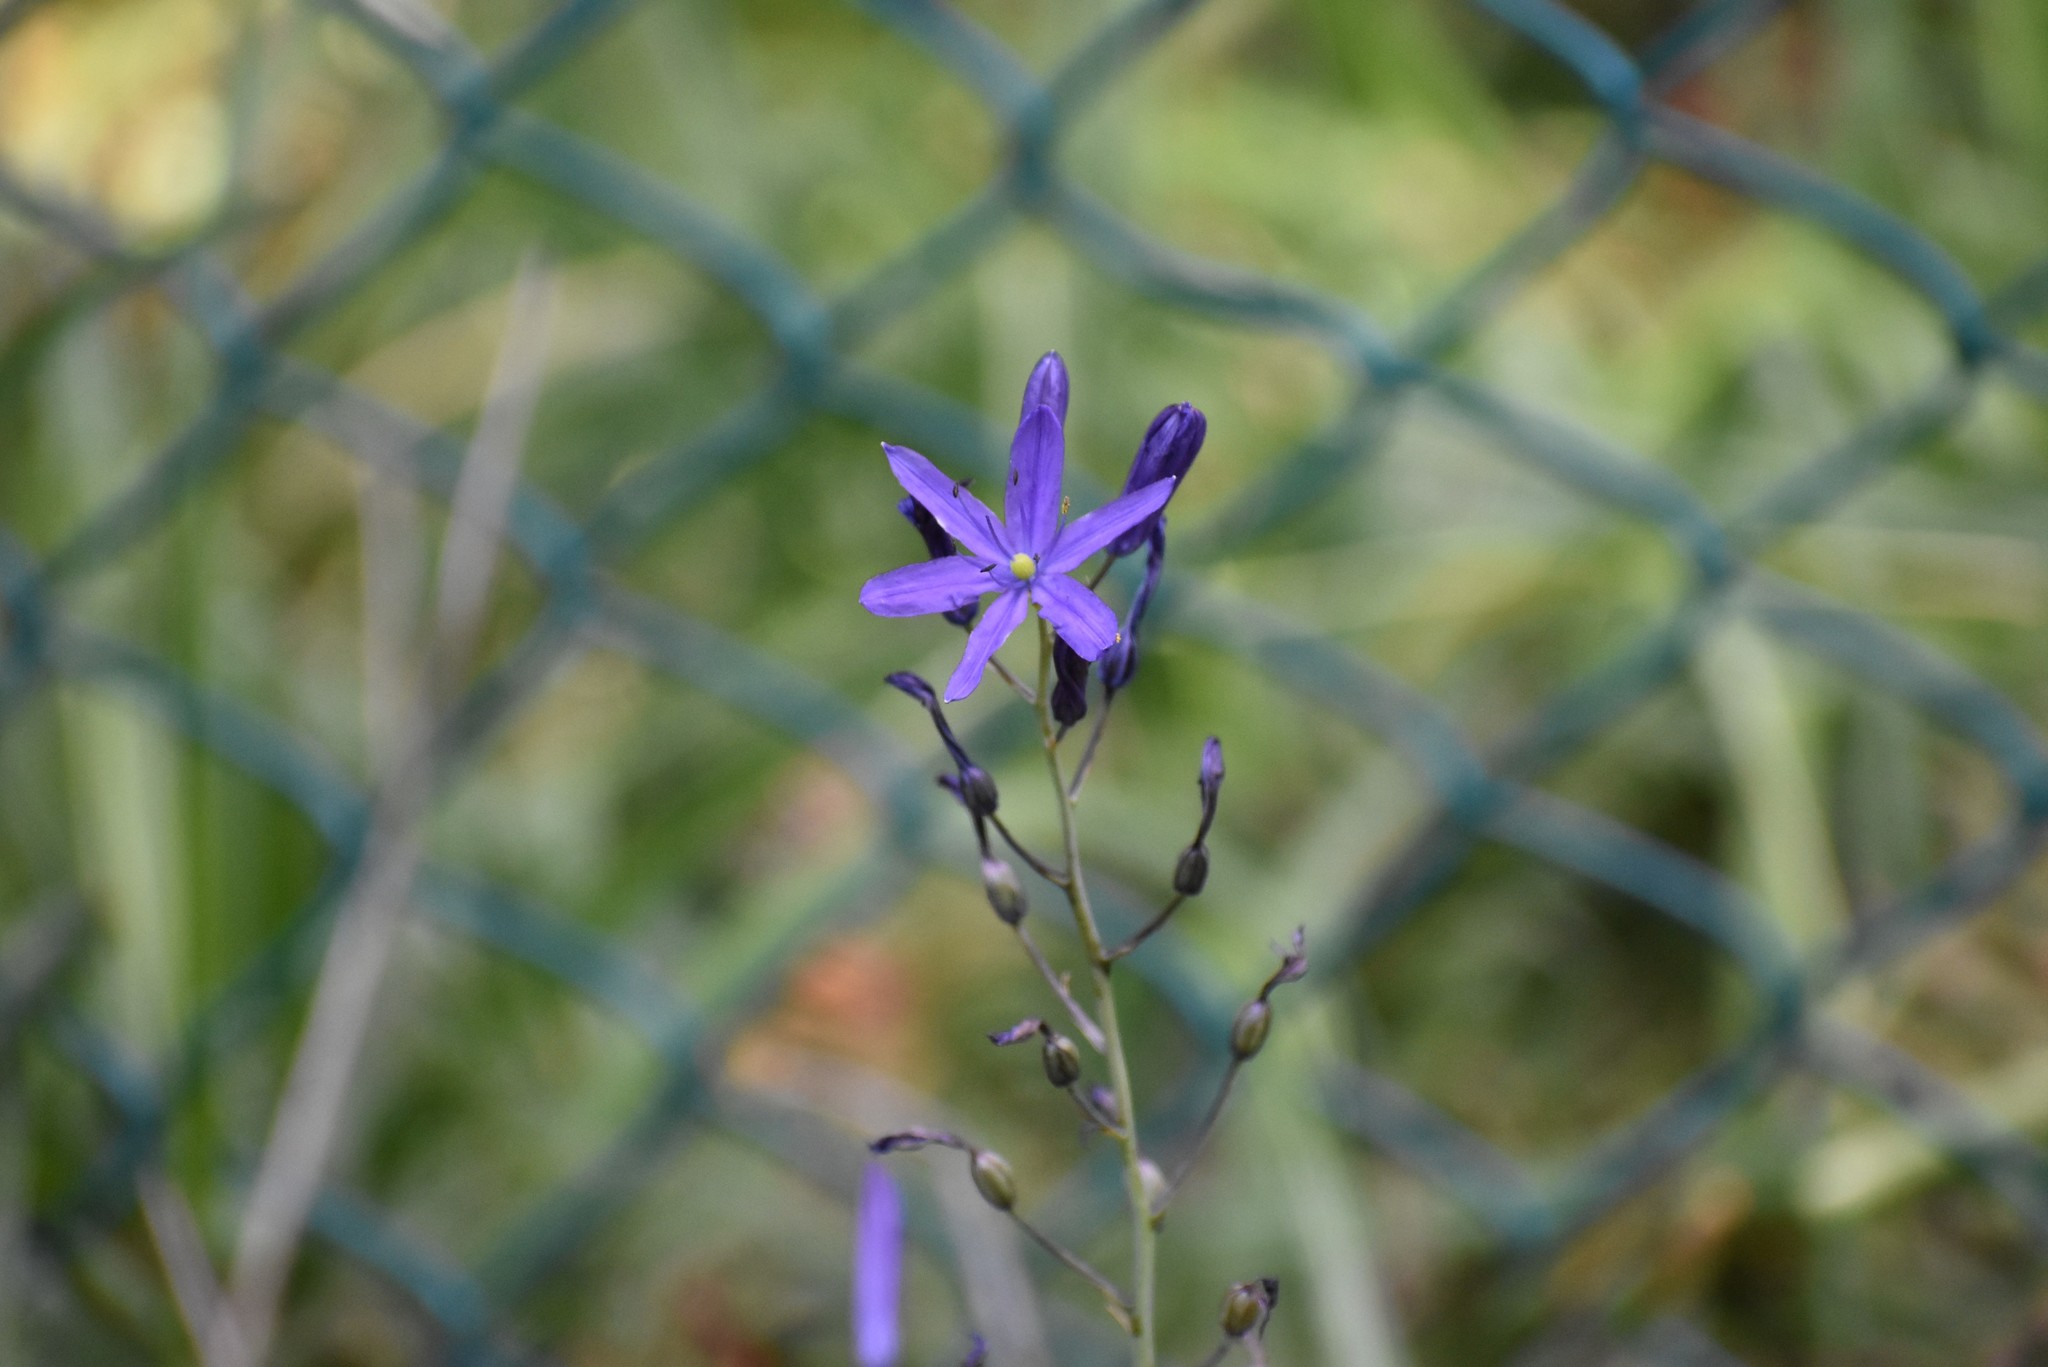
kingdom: Plantae
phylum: Tracheophyta
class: Liliopsida
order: Asparagales
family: Asparagaceae
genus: Camassia
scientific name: Camassia leichtlinii
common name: Leichtlin's camas
